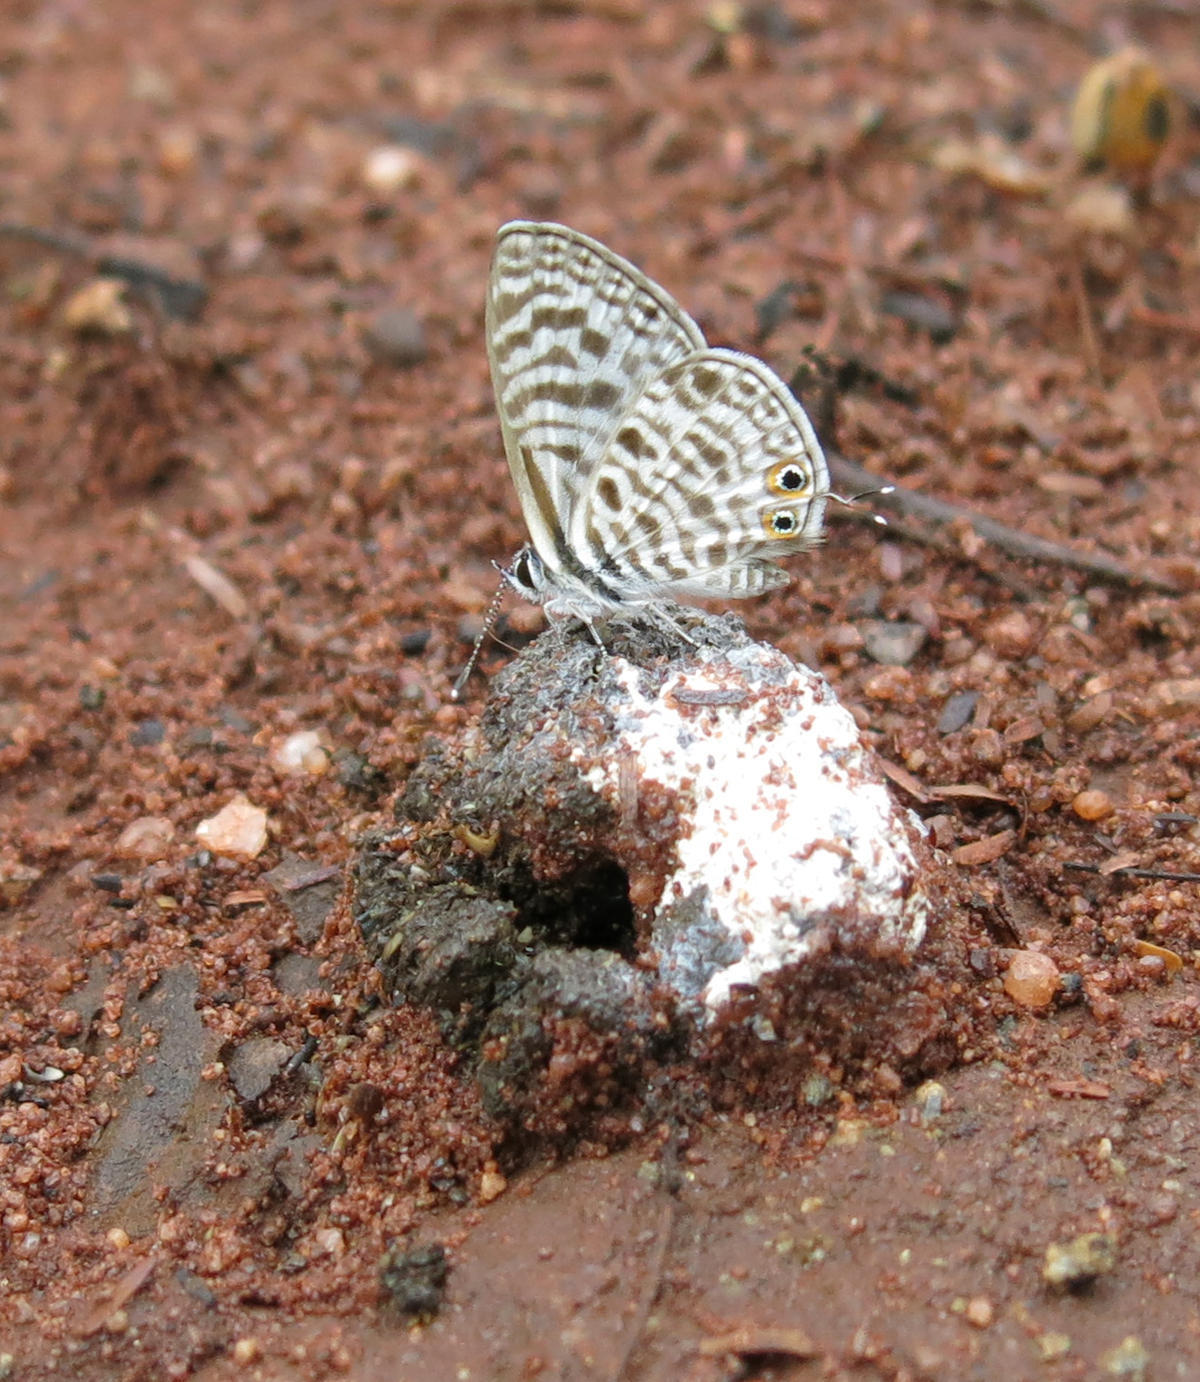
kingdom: Animalia
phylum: Arthropoda
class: Insecta
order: Lepidoptera
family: Lycaenidae
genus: Leptotes
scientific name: Leptotes
